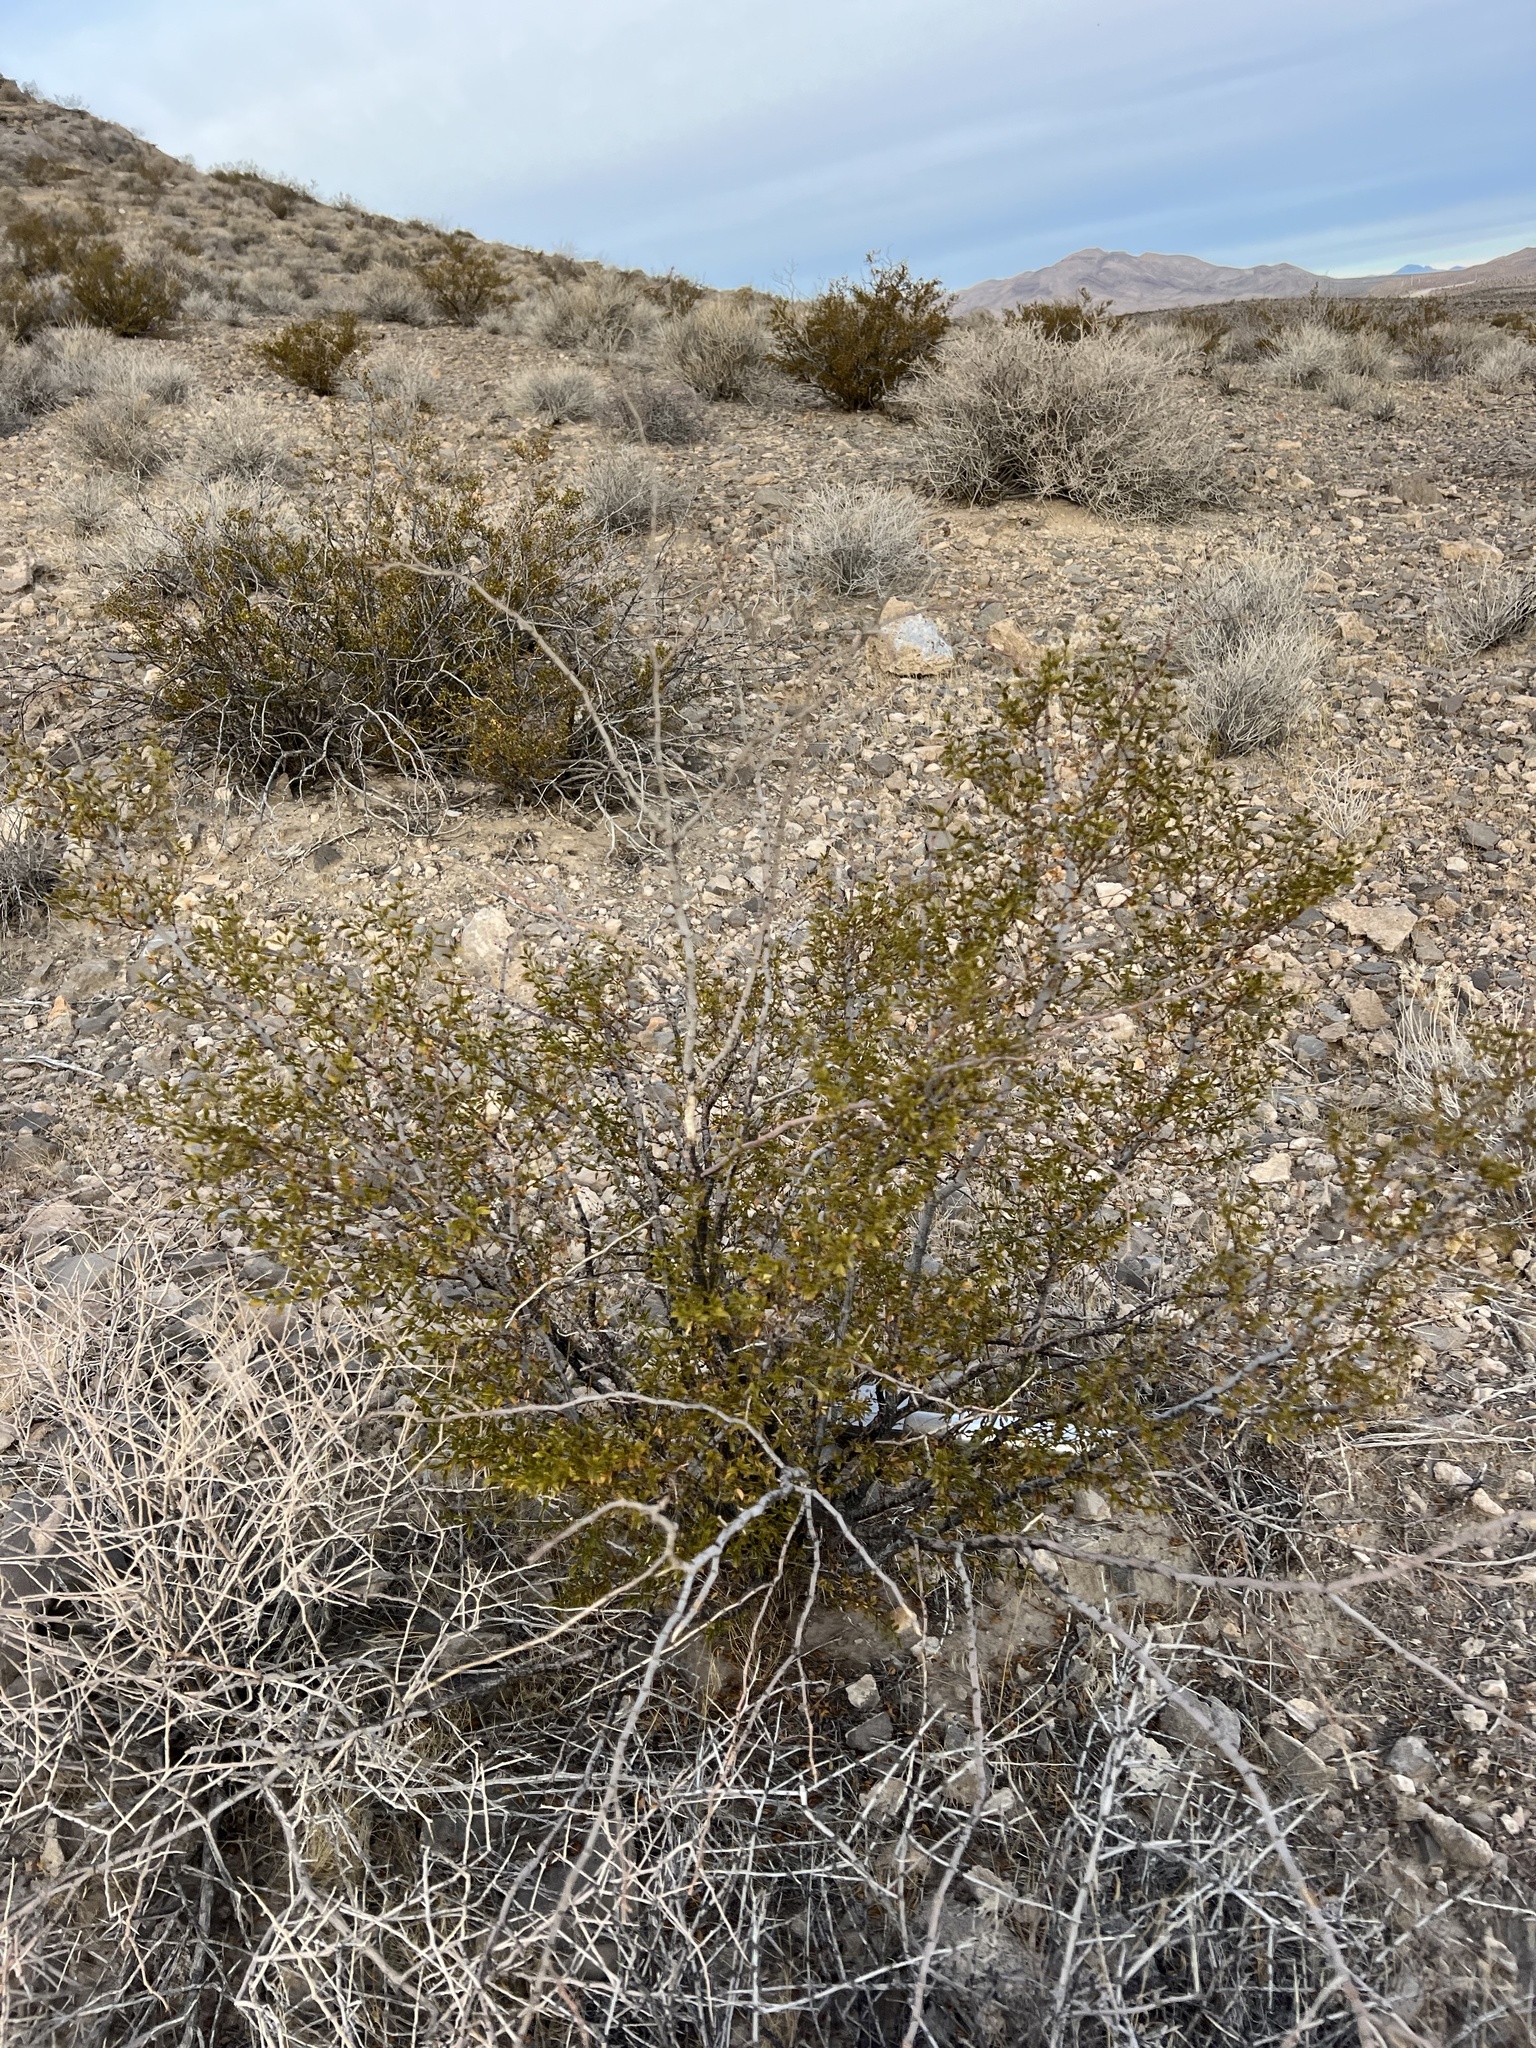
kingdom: Plantae
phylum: Tracheophyta
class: Magnoliopsida
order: Zygophyllales
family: Zygophyllaceae
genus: Larrea
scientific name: Larrea tridentata
